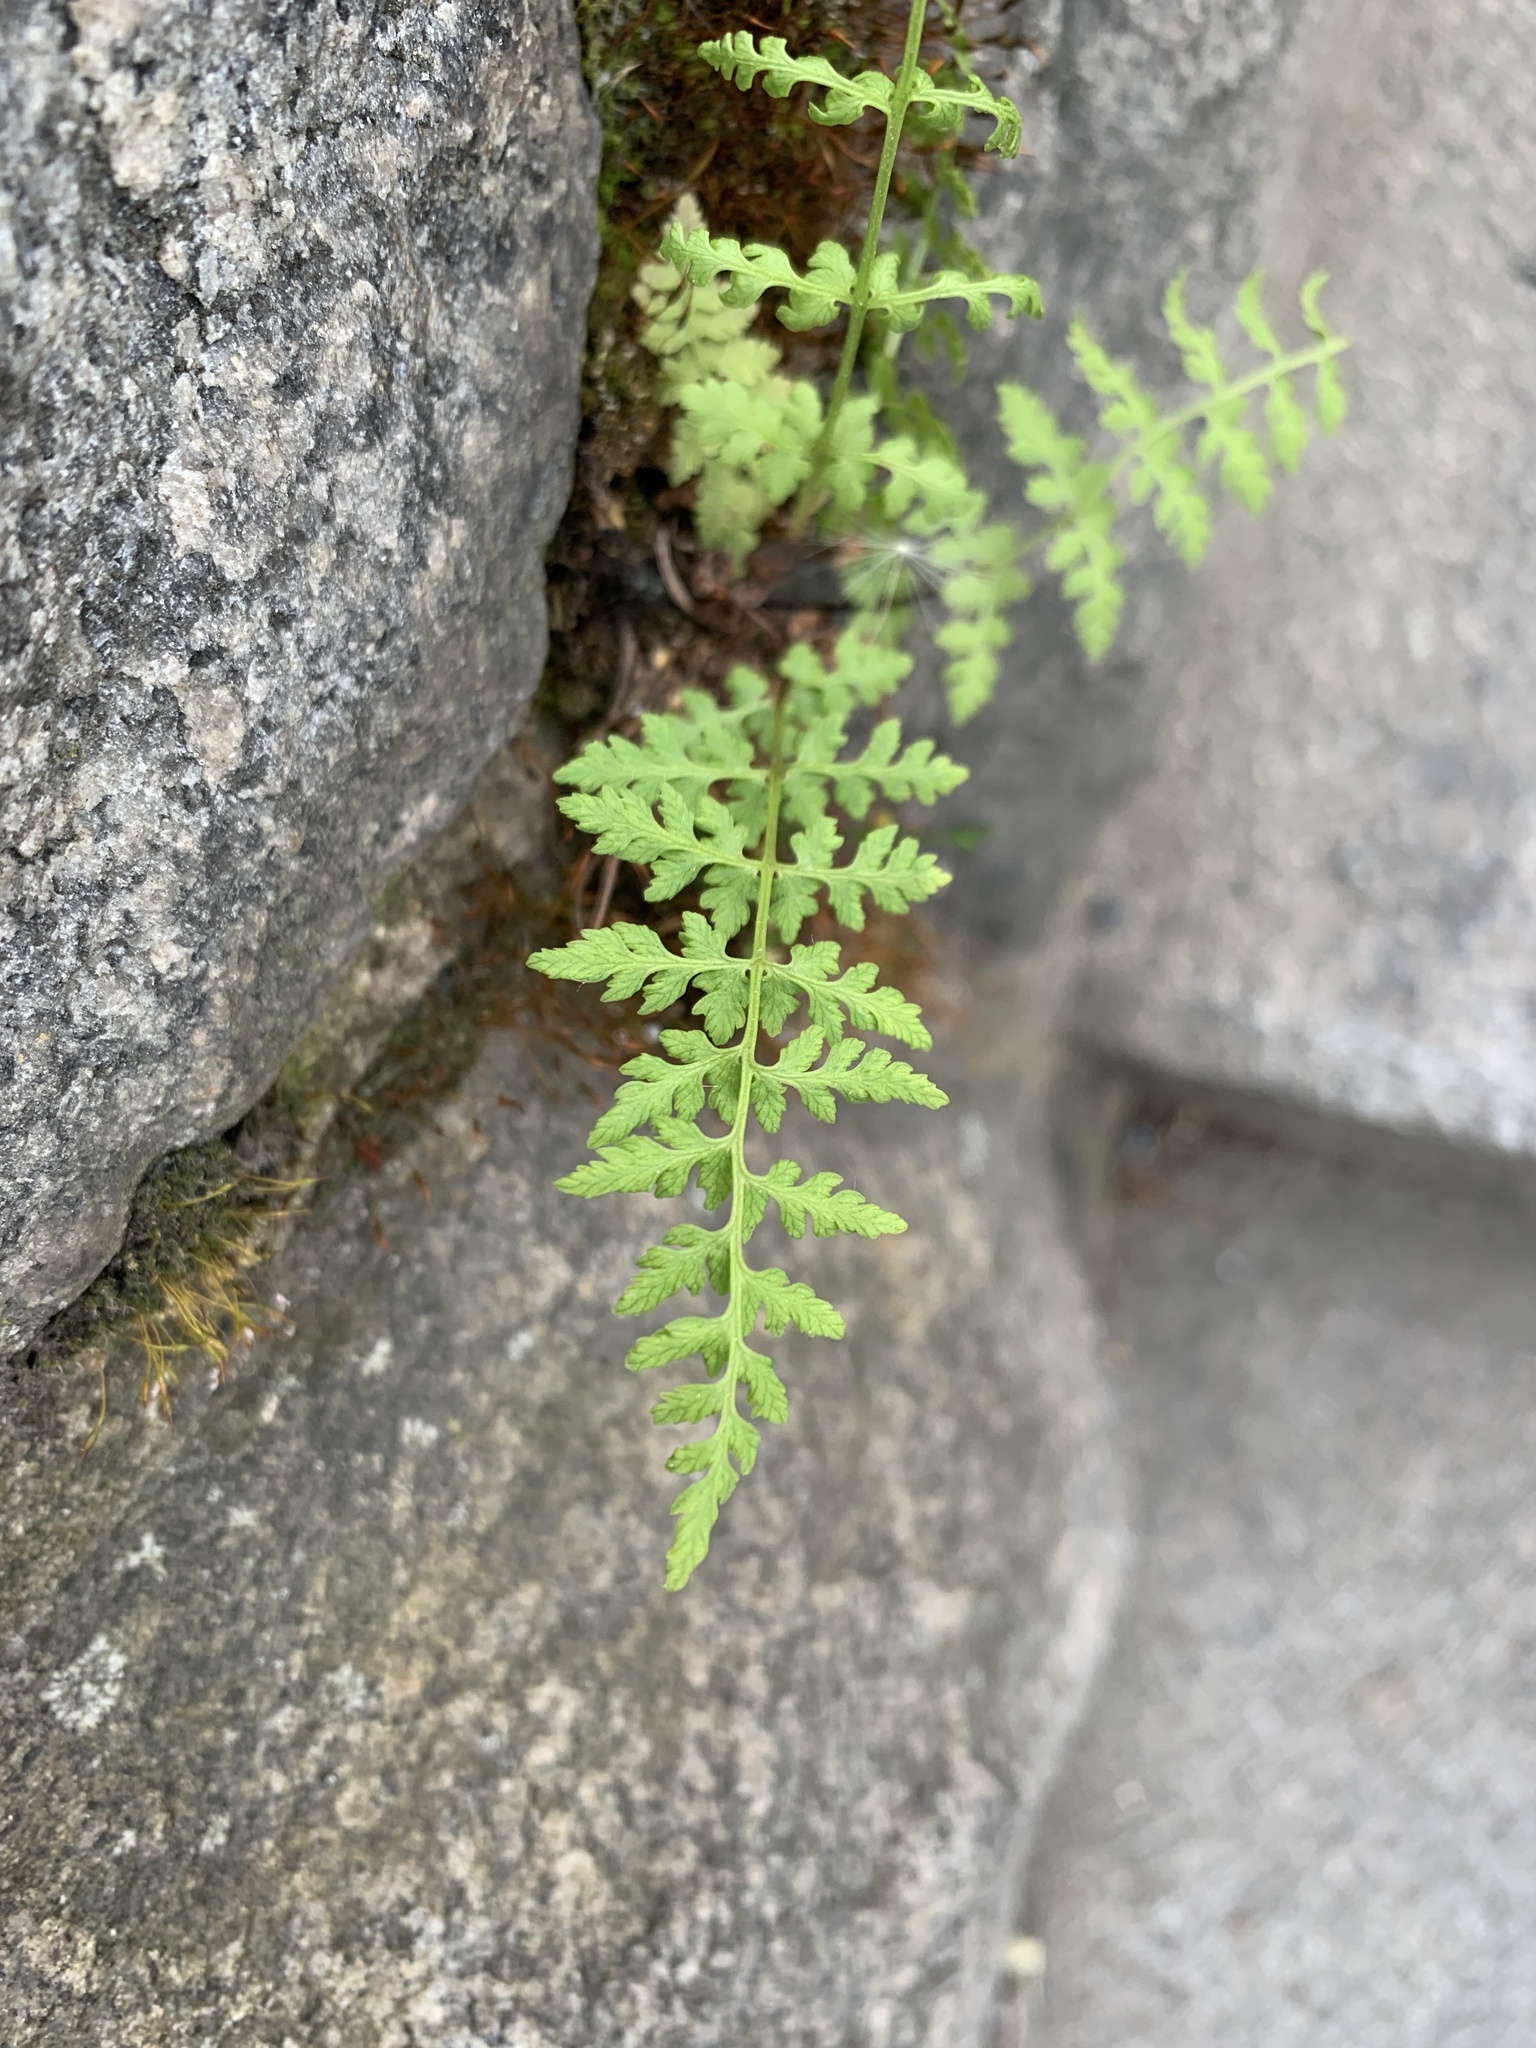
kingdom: Plantae
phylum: Tracheophyta
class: Polypodiopsida
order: Polypodiales
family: Cystopteridaceae
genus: Cystopteris
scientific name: Cystopteris fragilis
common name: Brittle bladder fern
